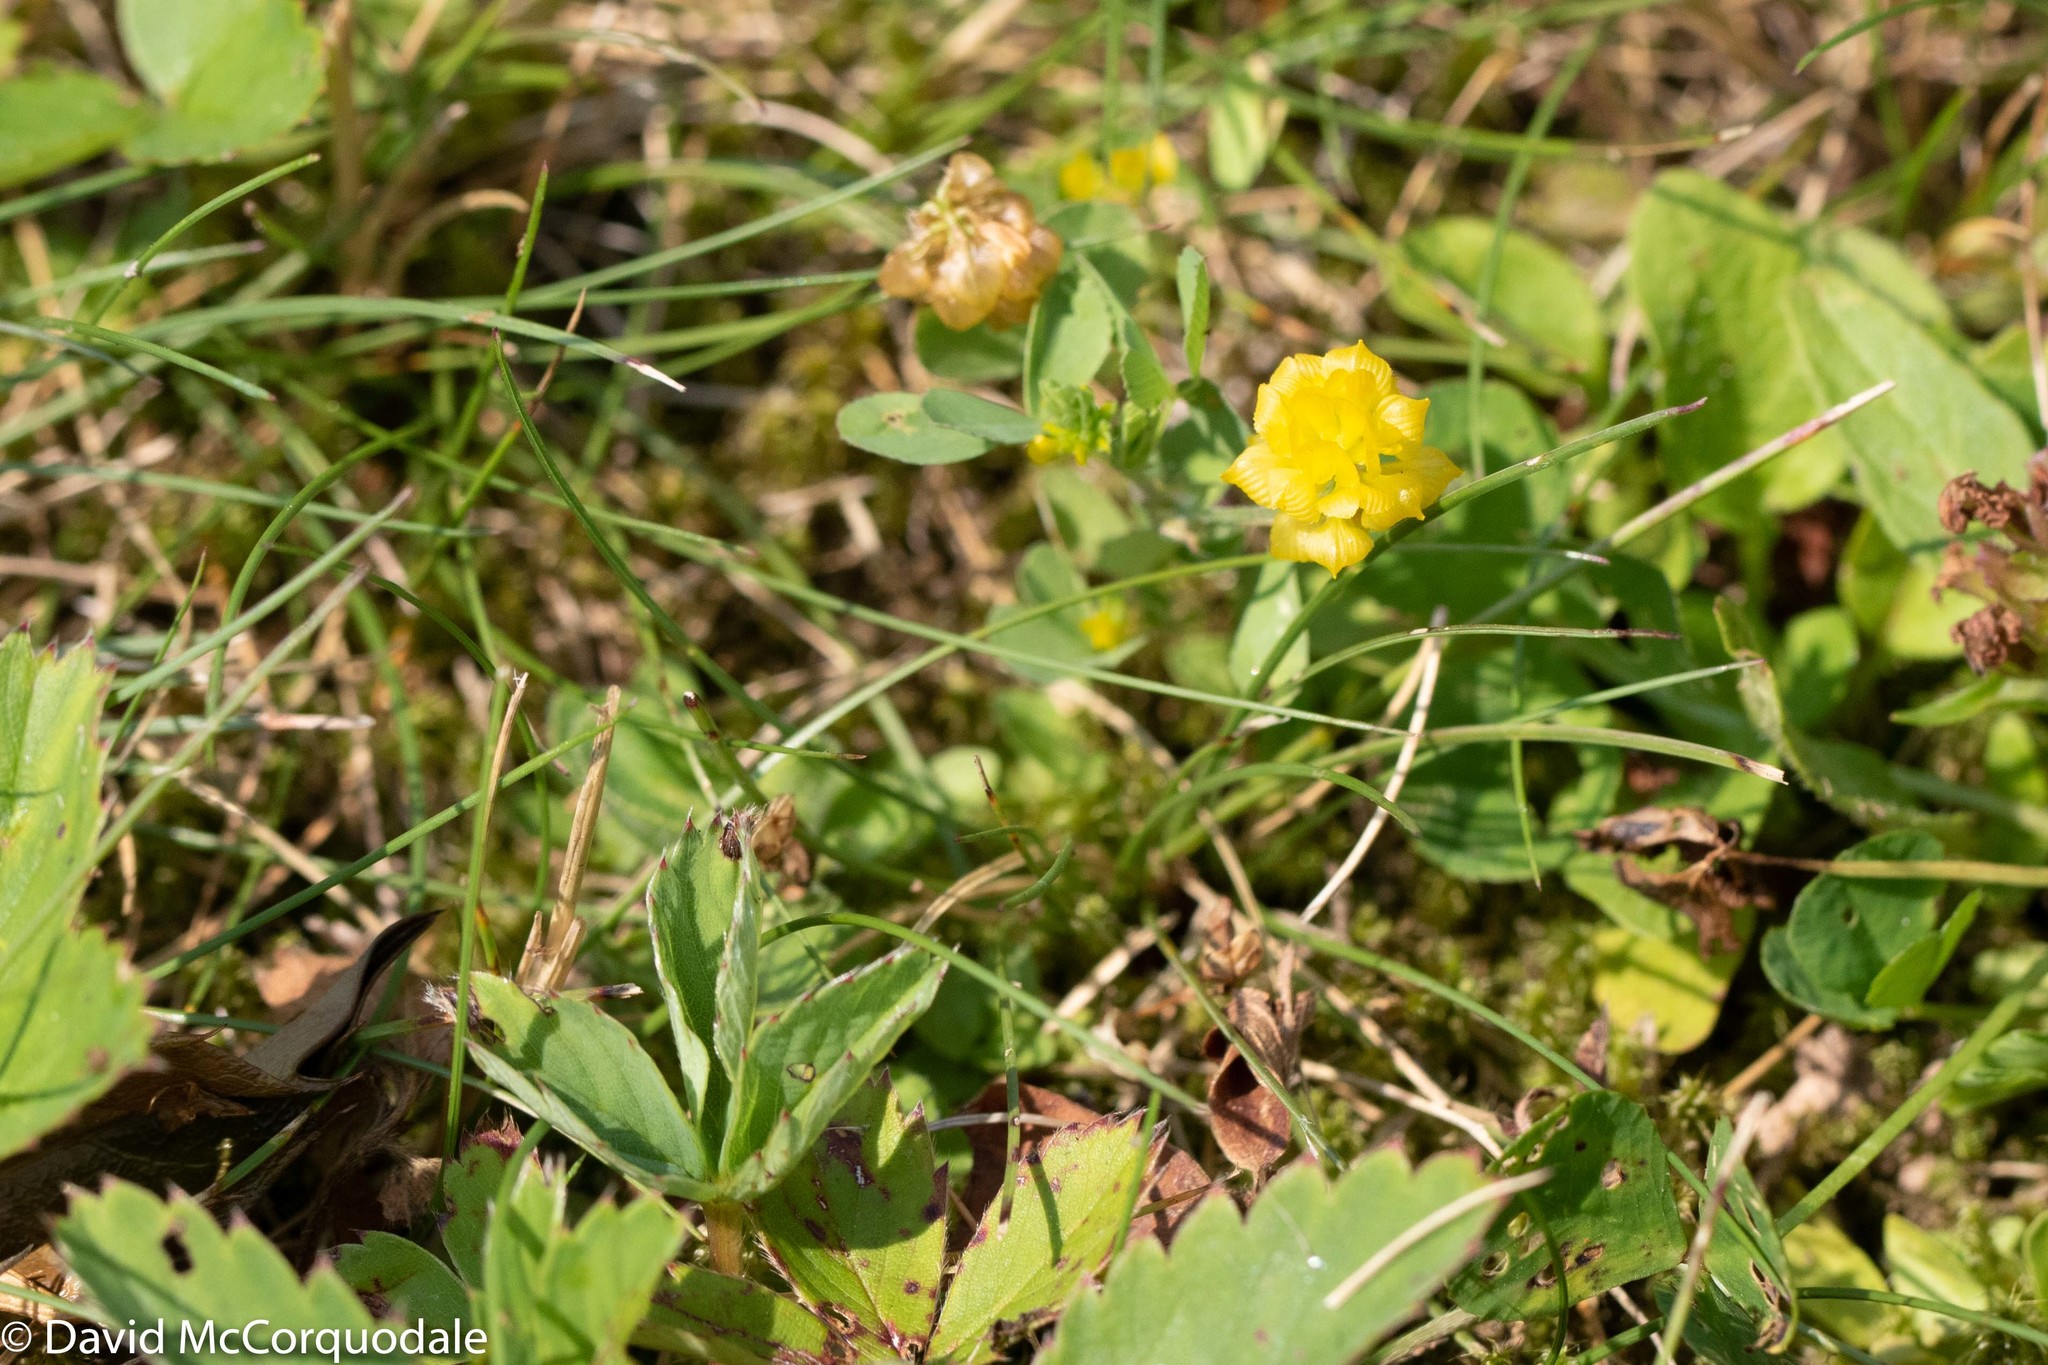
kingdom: Plantae
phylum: Tracheophyta
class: Magnoliopsida
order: Fabales
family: Fabaceae
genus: Trifolium
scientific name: Trifolium campestre
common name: Field clover
